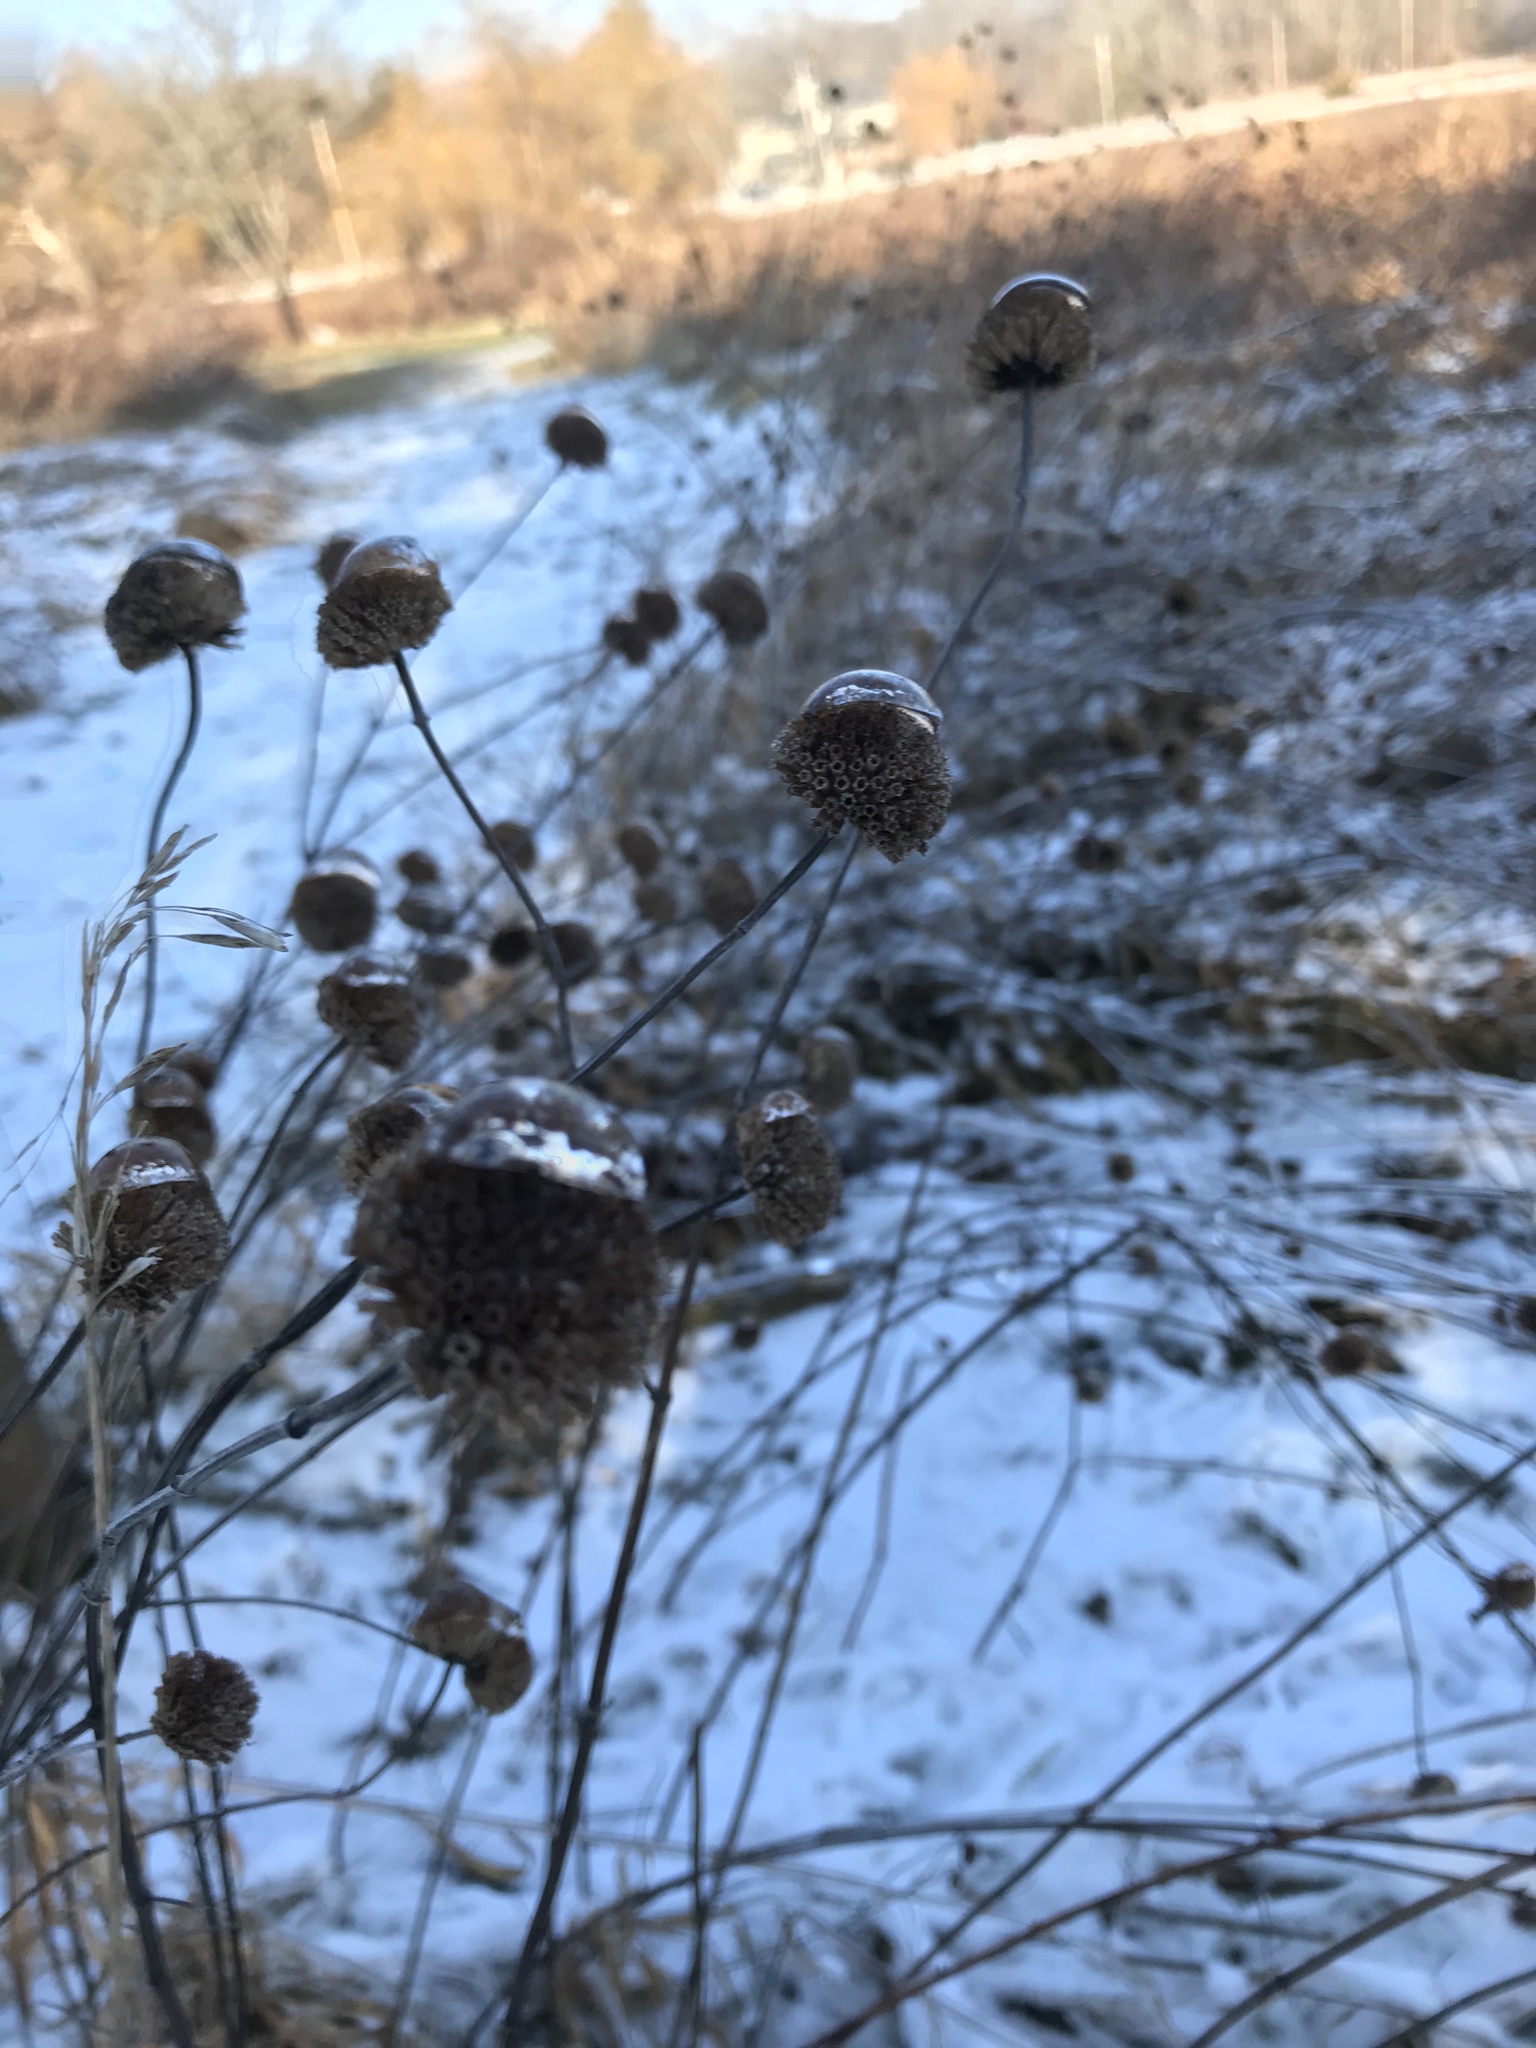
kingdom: Plantae
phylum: Tracheophyta
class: Magnoliopsida
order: Lamiales
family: Lamiaceae
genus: Monarda
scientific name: Monarda fistulosa
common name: Purple beebalm
